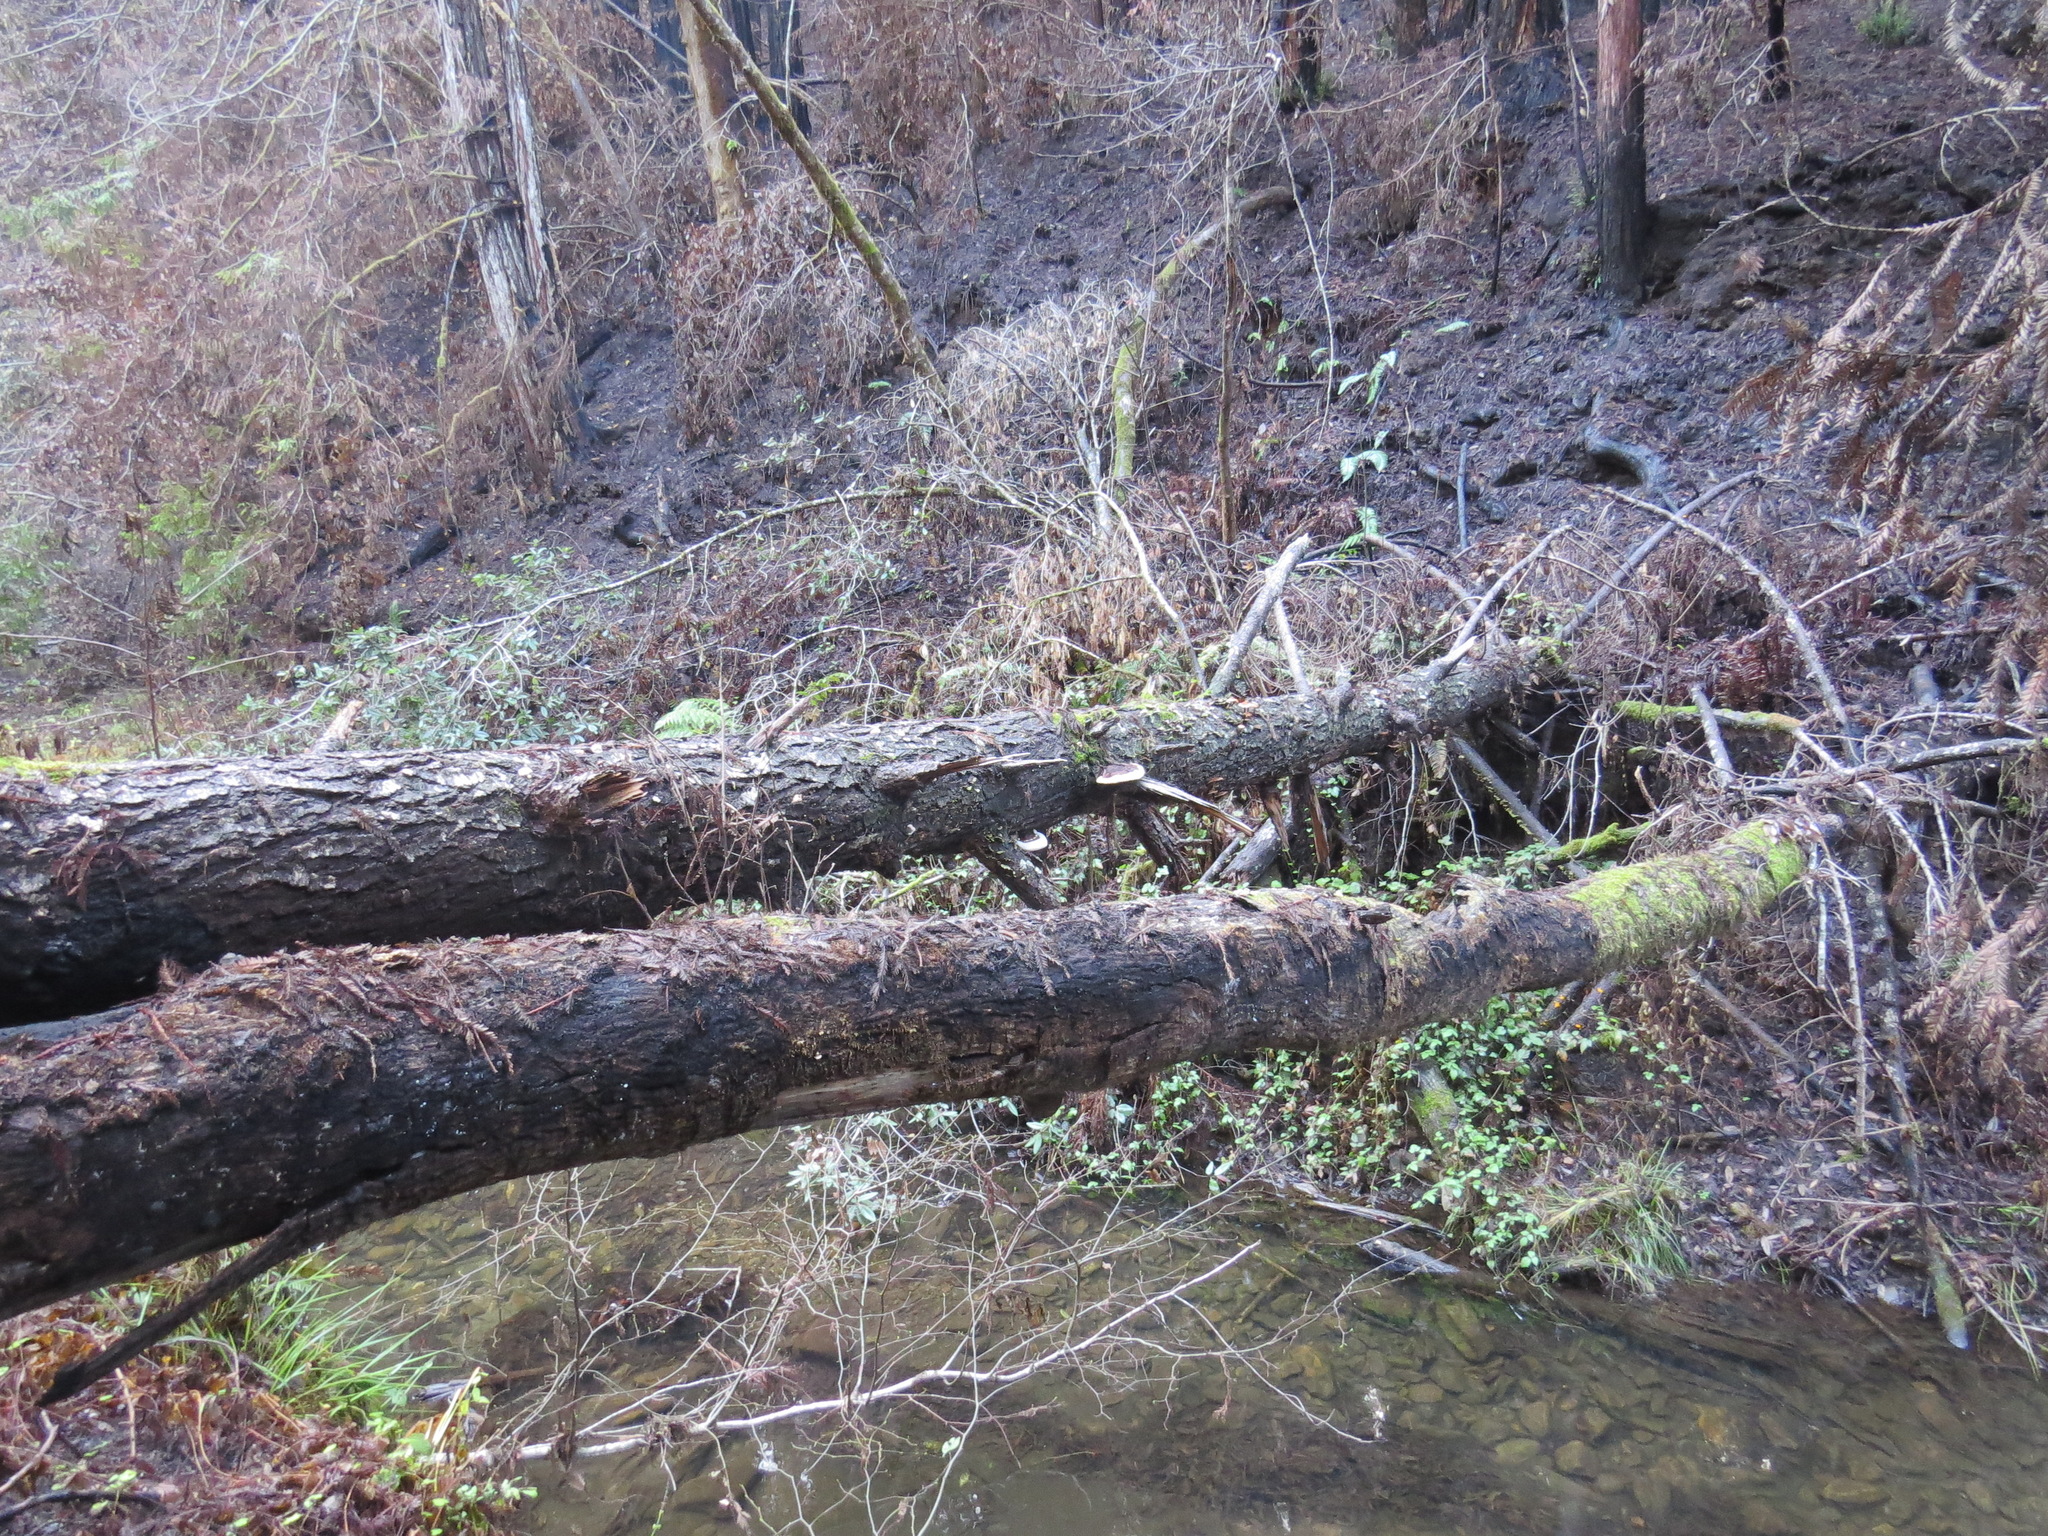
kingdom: Fungi
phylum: Basidiomycota
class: Agaricomycetes
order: Polyporales
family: Fomitopsidaceae
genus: Fomitopsis
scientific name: Fomitopsis mounceae
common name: Northern red belt
